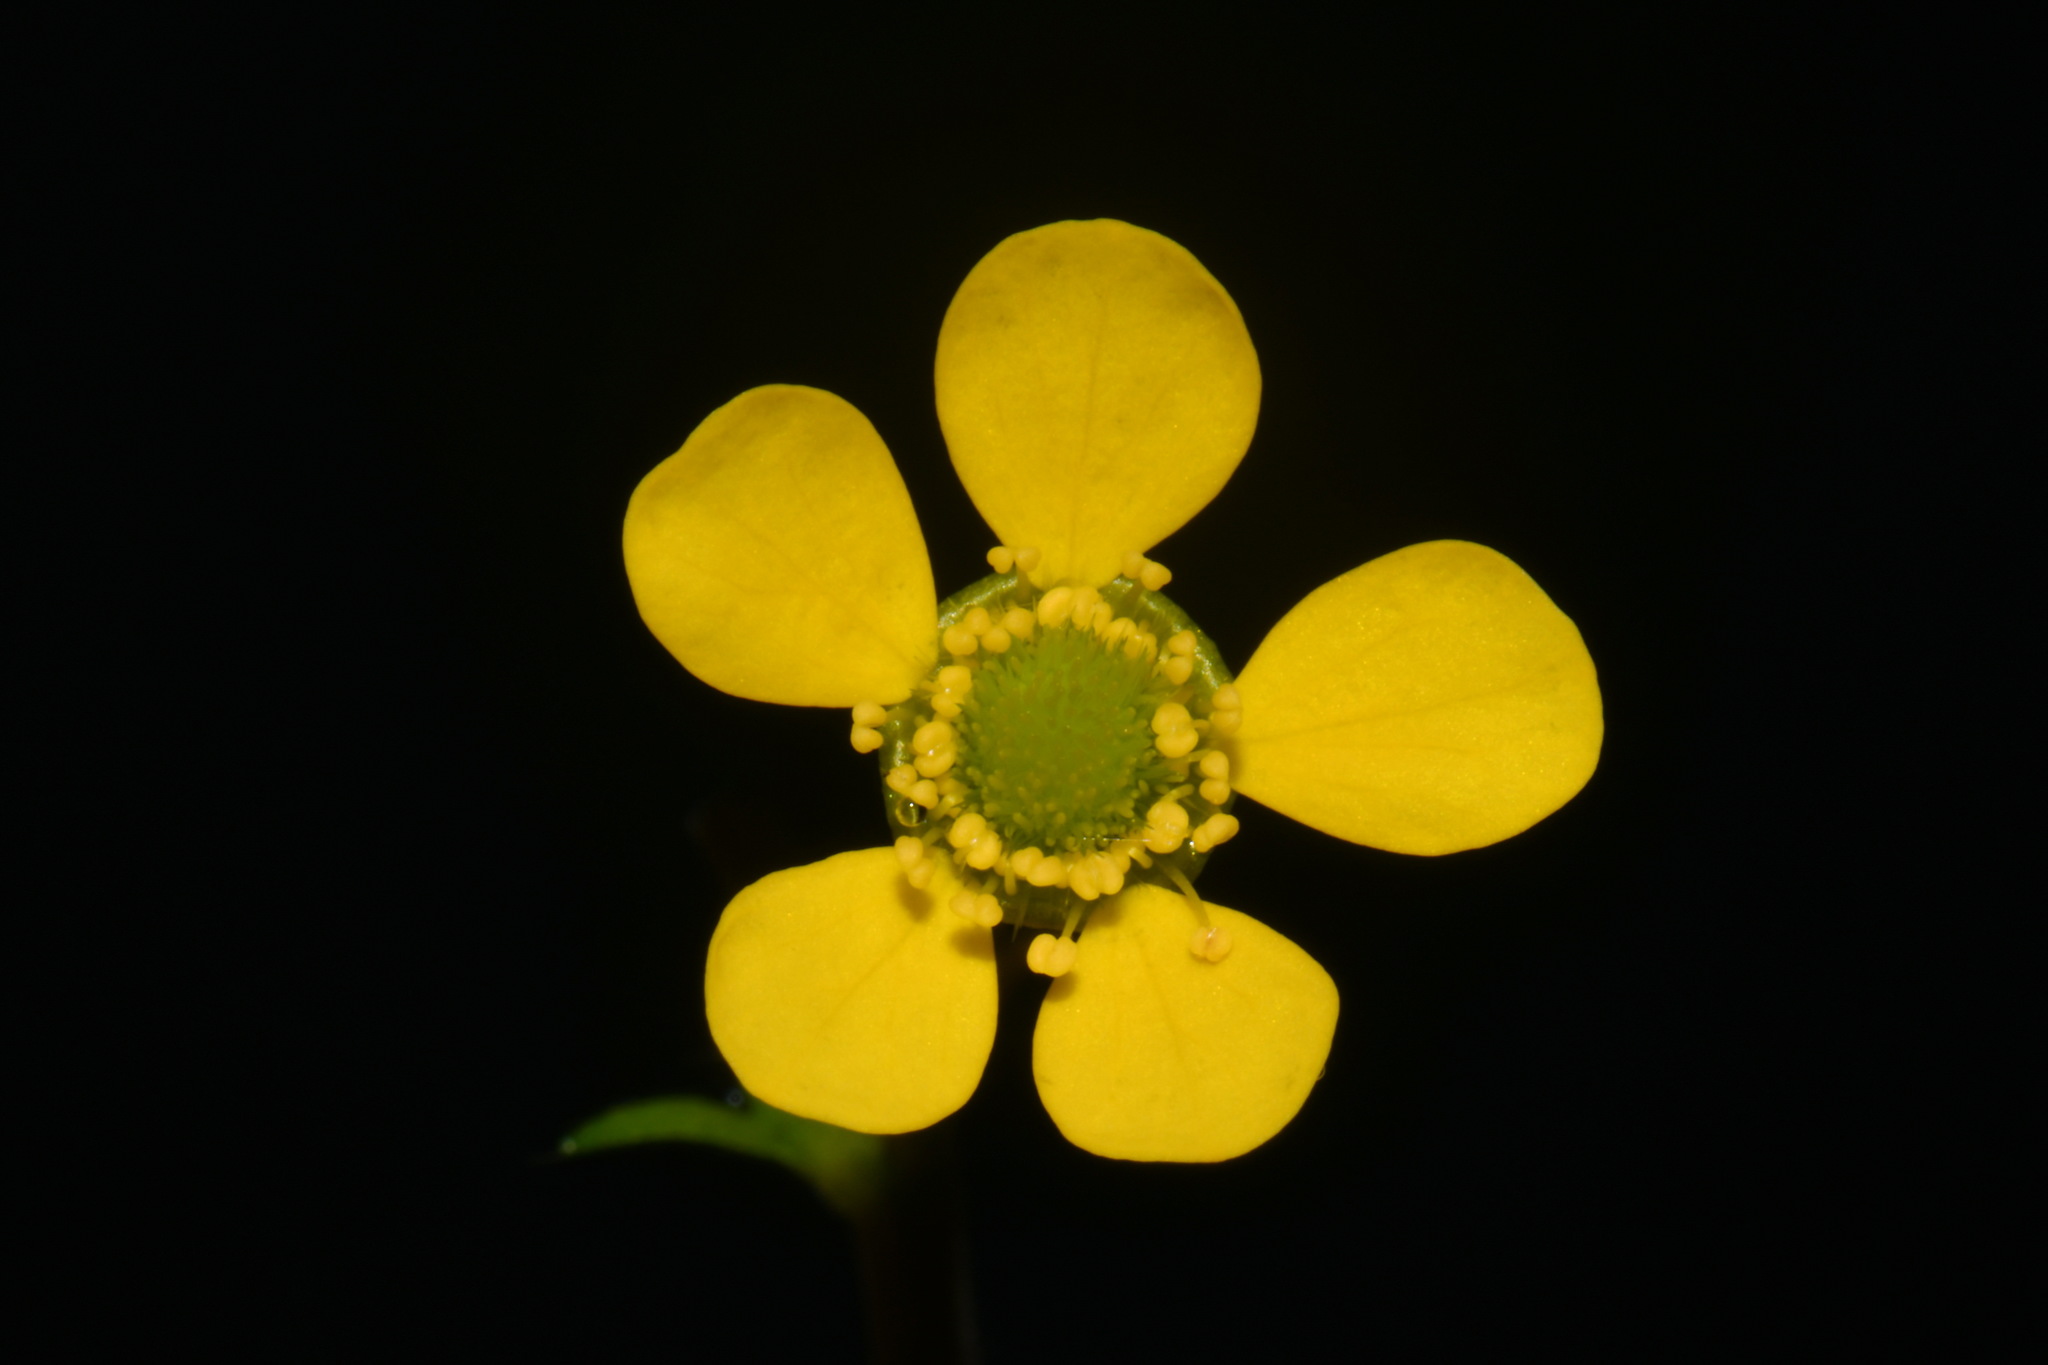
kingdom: Plantae
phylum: Tracheophyta
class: Magnoliopsida
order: Rosales
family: Rosaceae
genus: Geum
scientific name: Geum macrophyllum
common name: Large-leaved avens
